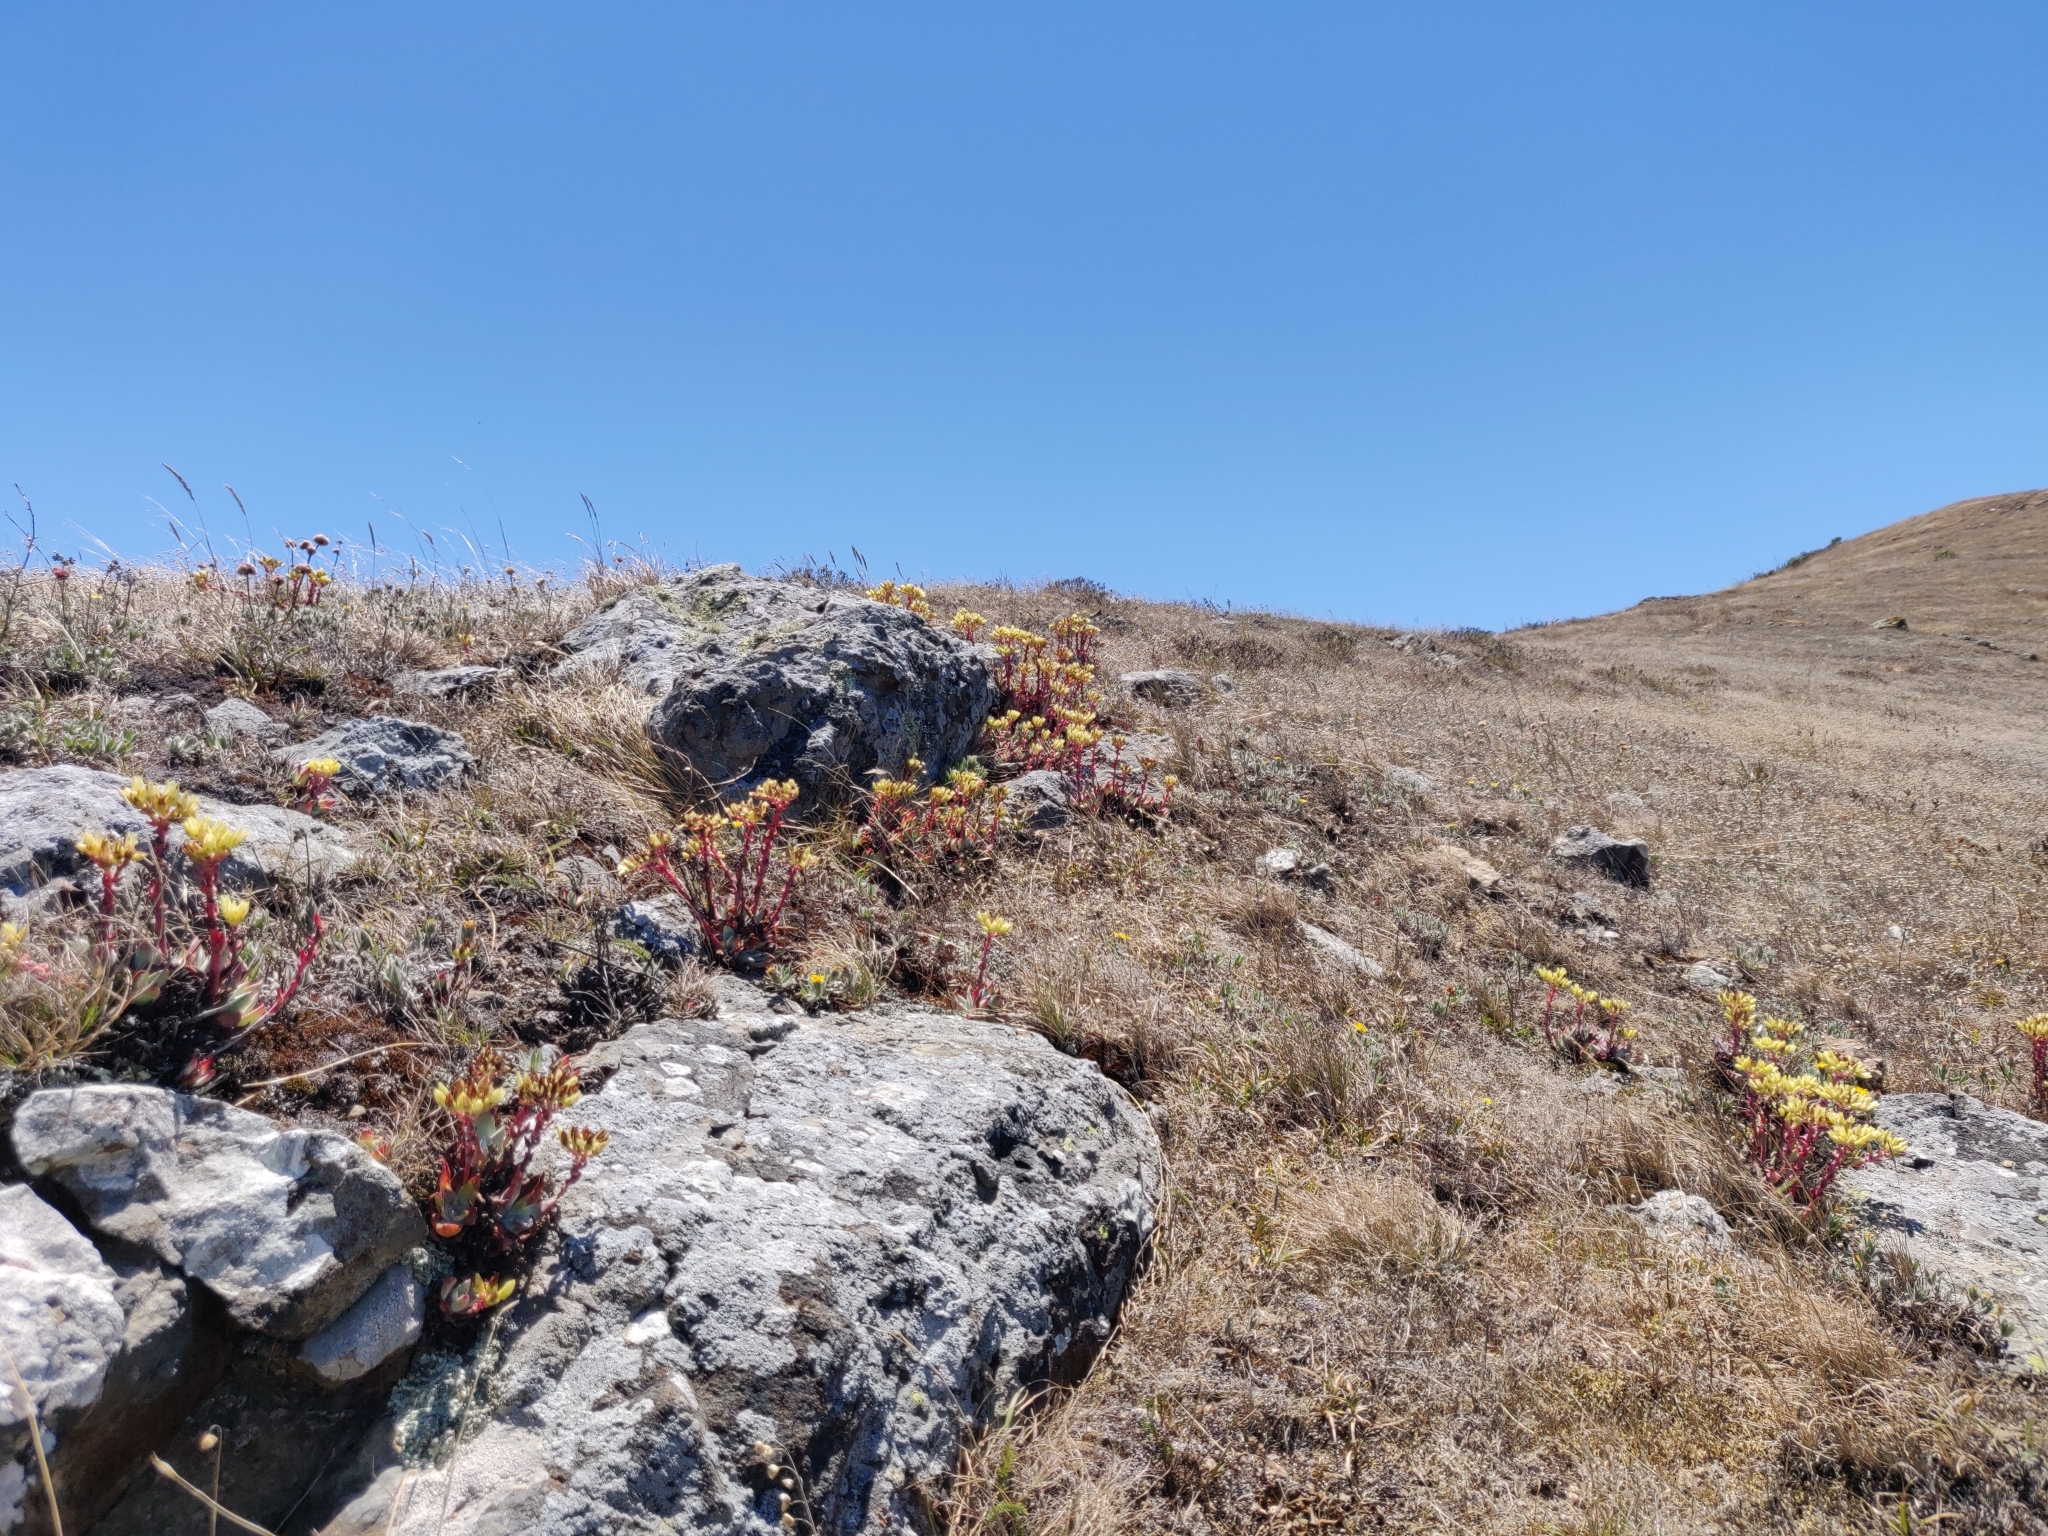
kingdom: Plantae
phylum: Tracheophyta
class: Magnoliopsida
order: Saxifragales
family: Crassulaceae
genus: Dudleya
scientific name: Dudleya farinosa
